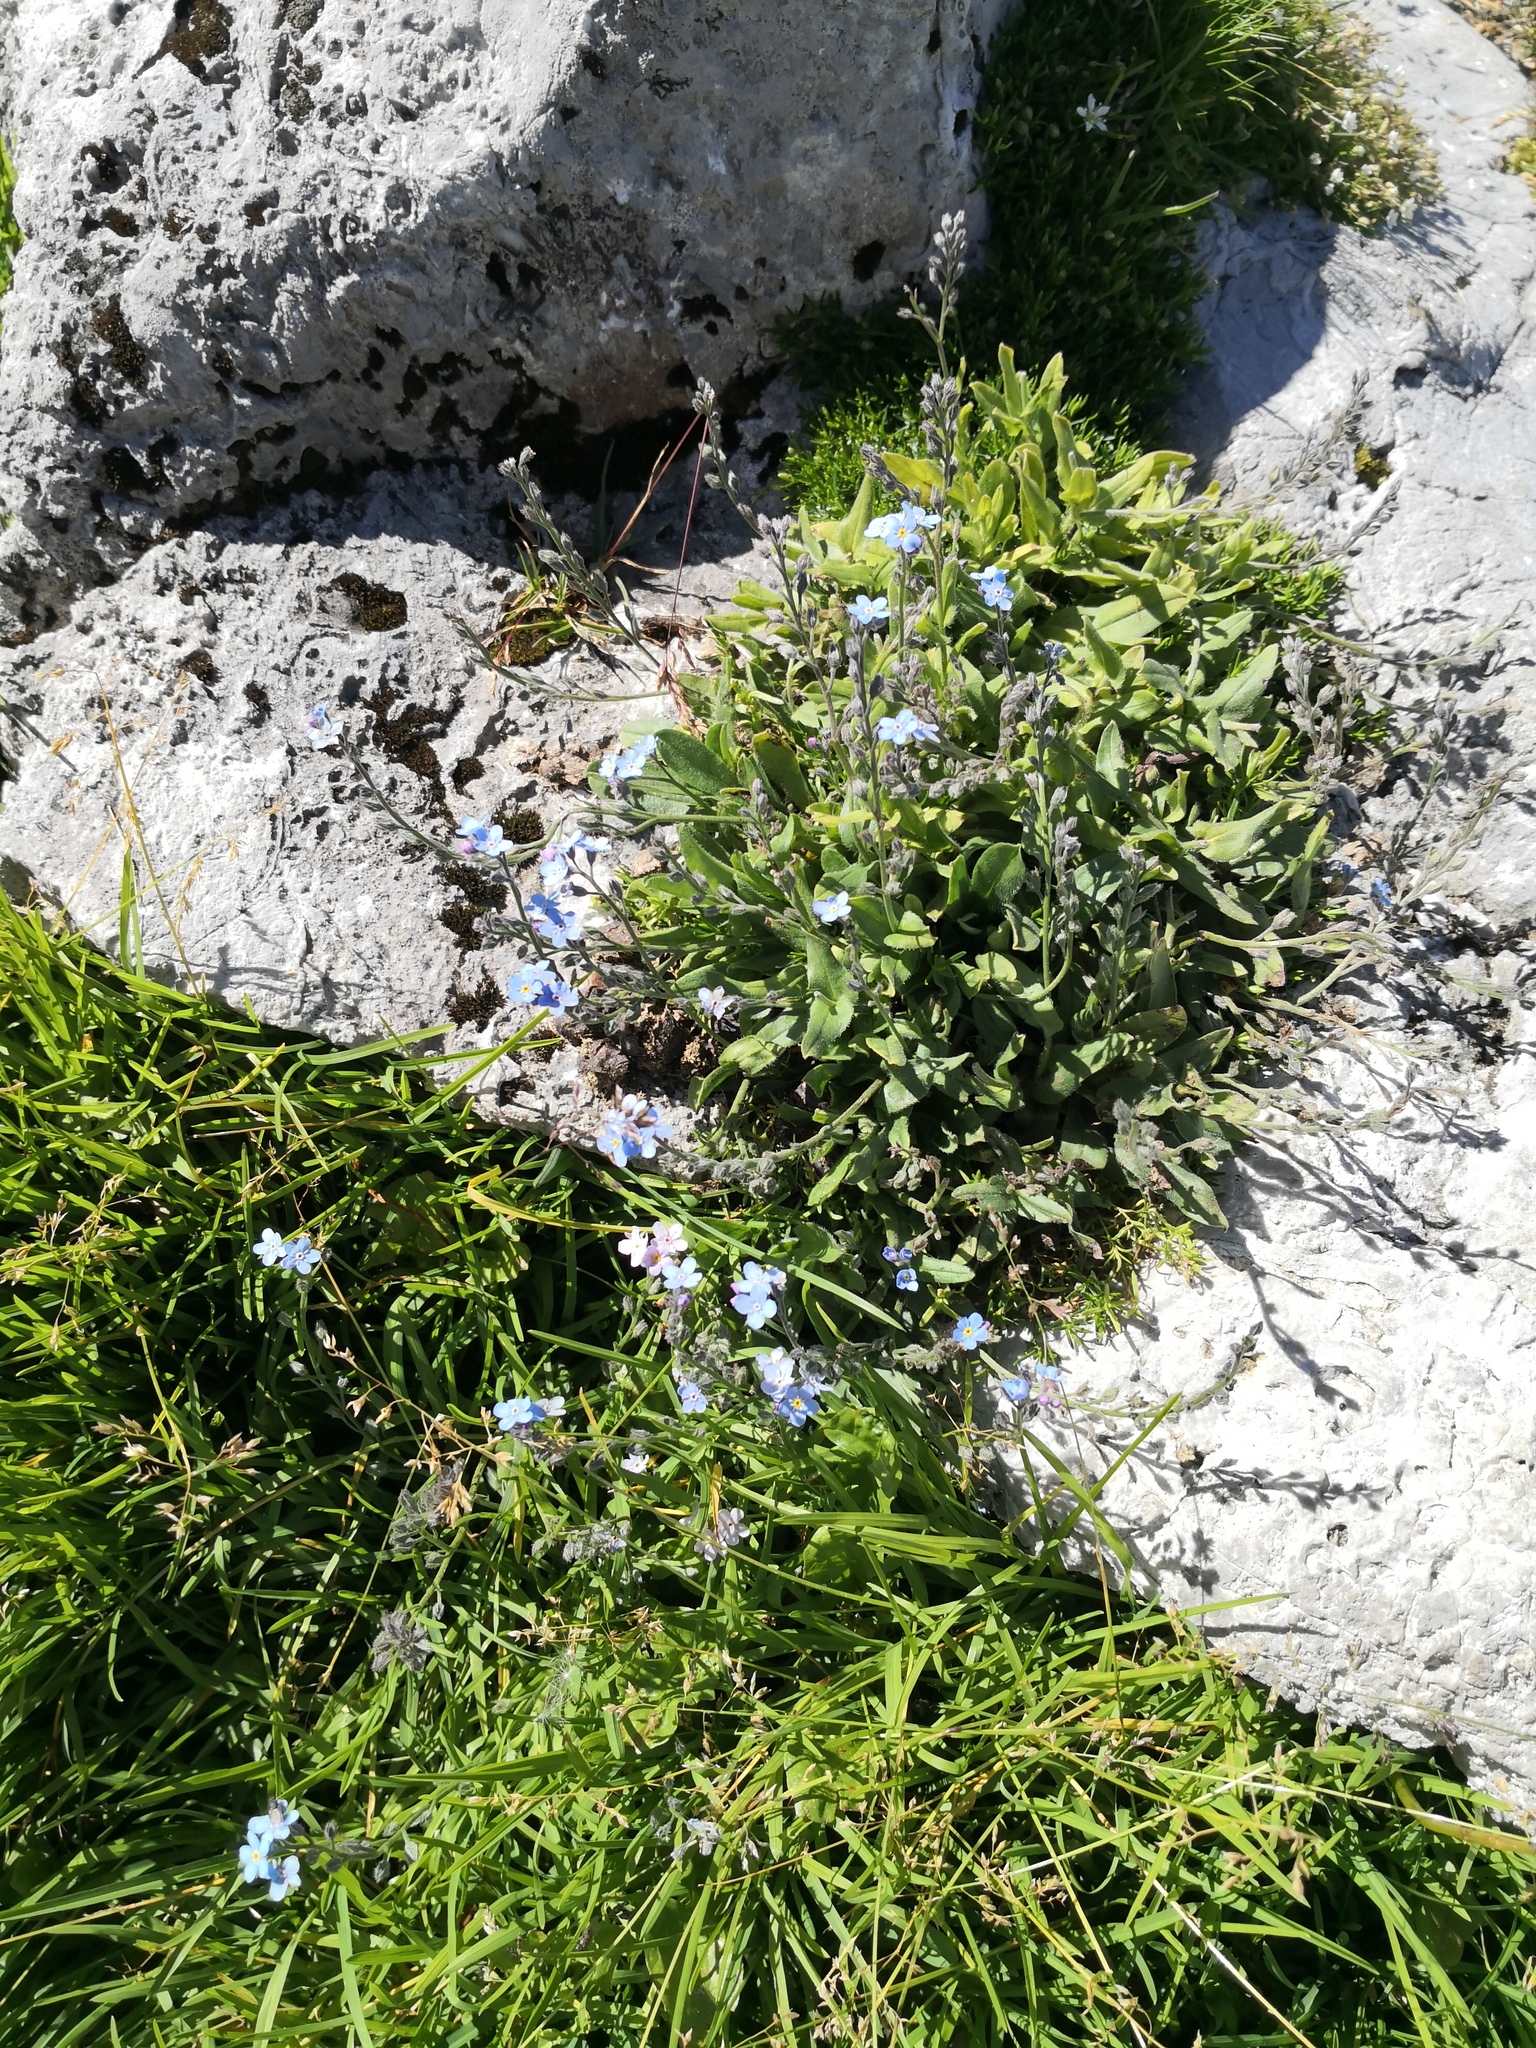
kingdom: Plantae
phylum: Tracheophyta
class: Magnoliopsida
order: Boraginales
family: Boraginaceae
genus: Myosotis
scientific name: Myosotis alpestris
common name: Alpine forget-me-not
